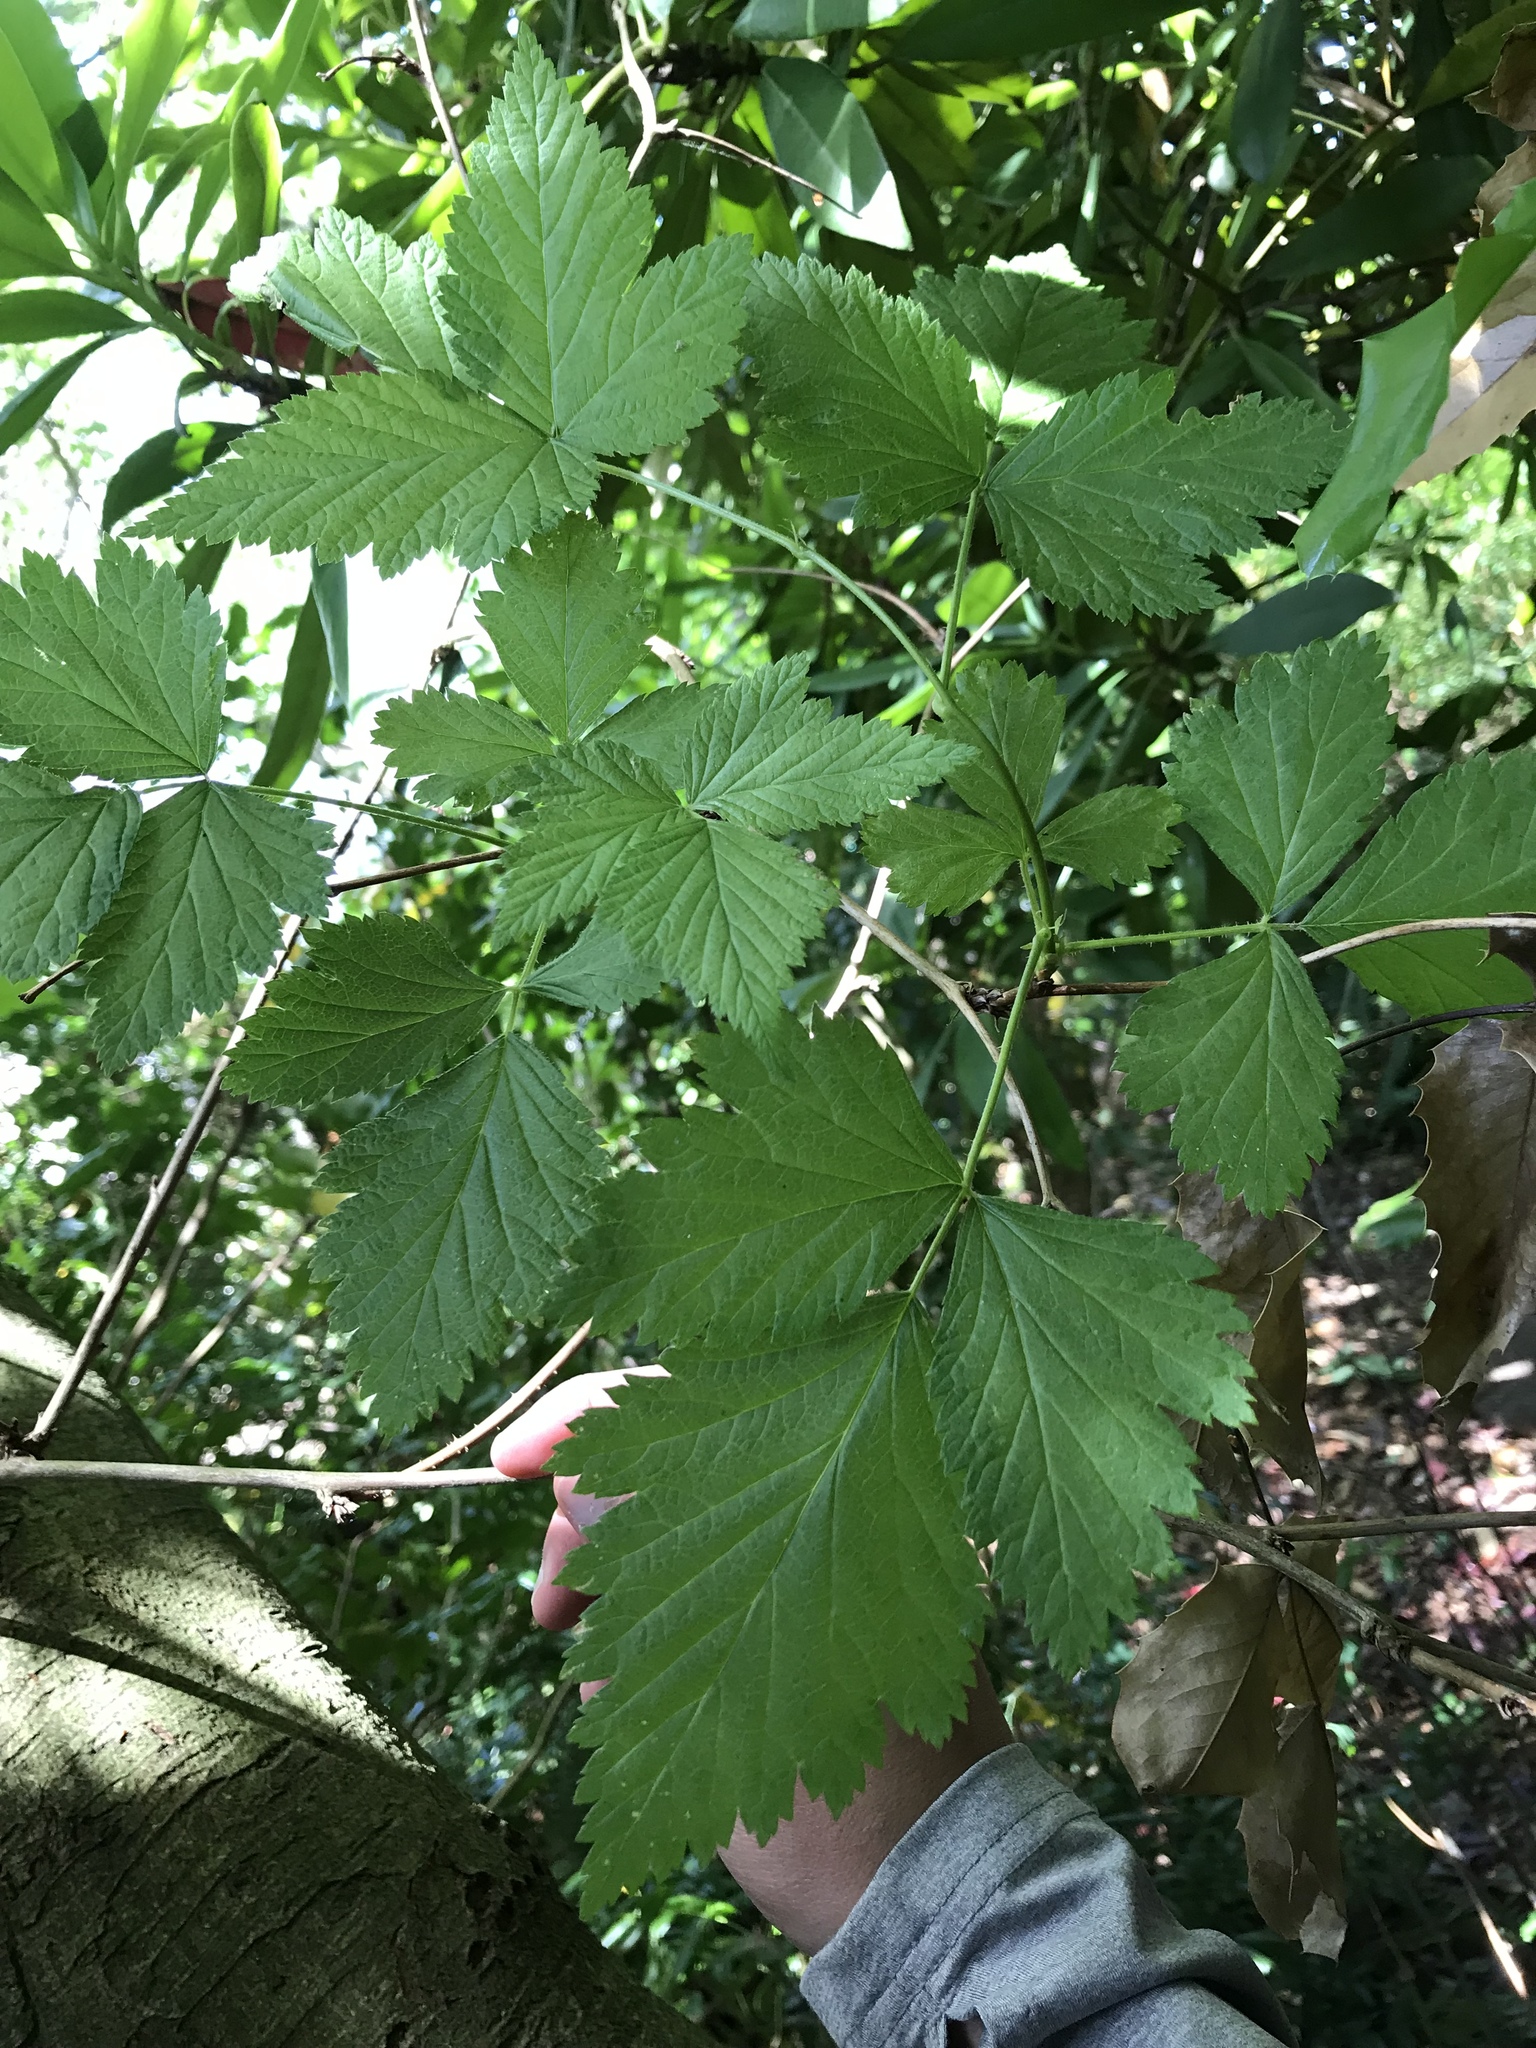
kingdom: Plantae
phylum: Tracheophyta
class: Magnoliopsida
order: Rosales
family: Rosaceae
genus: Rubus
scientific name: Rubus spectabilis
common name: Salmonberry
